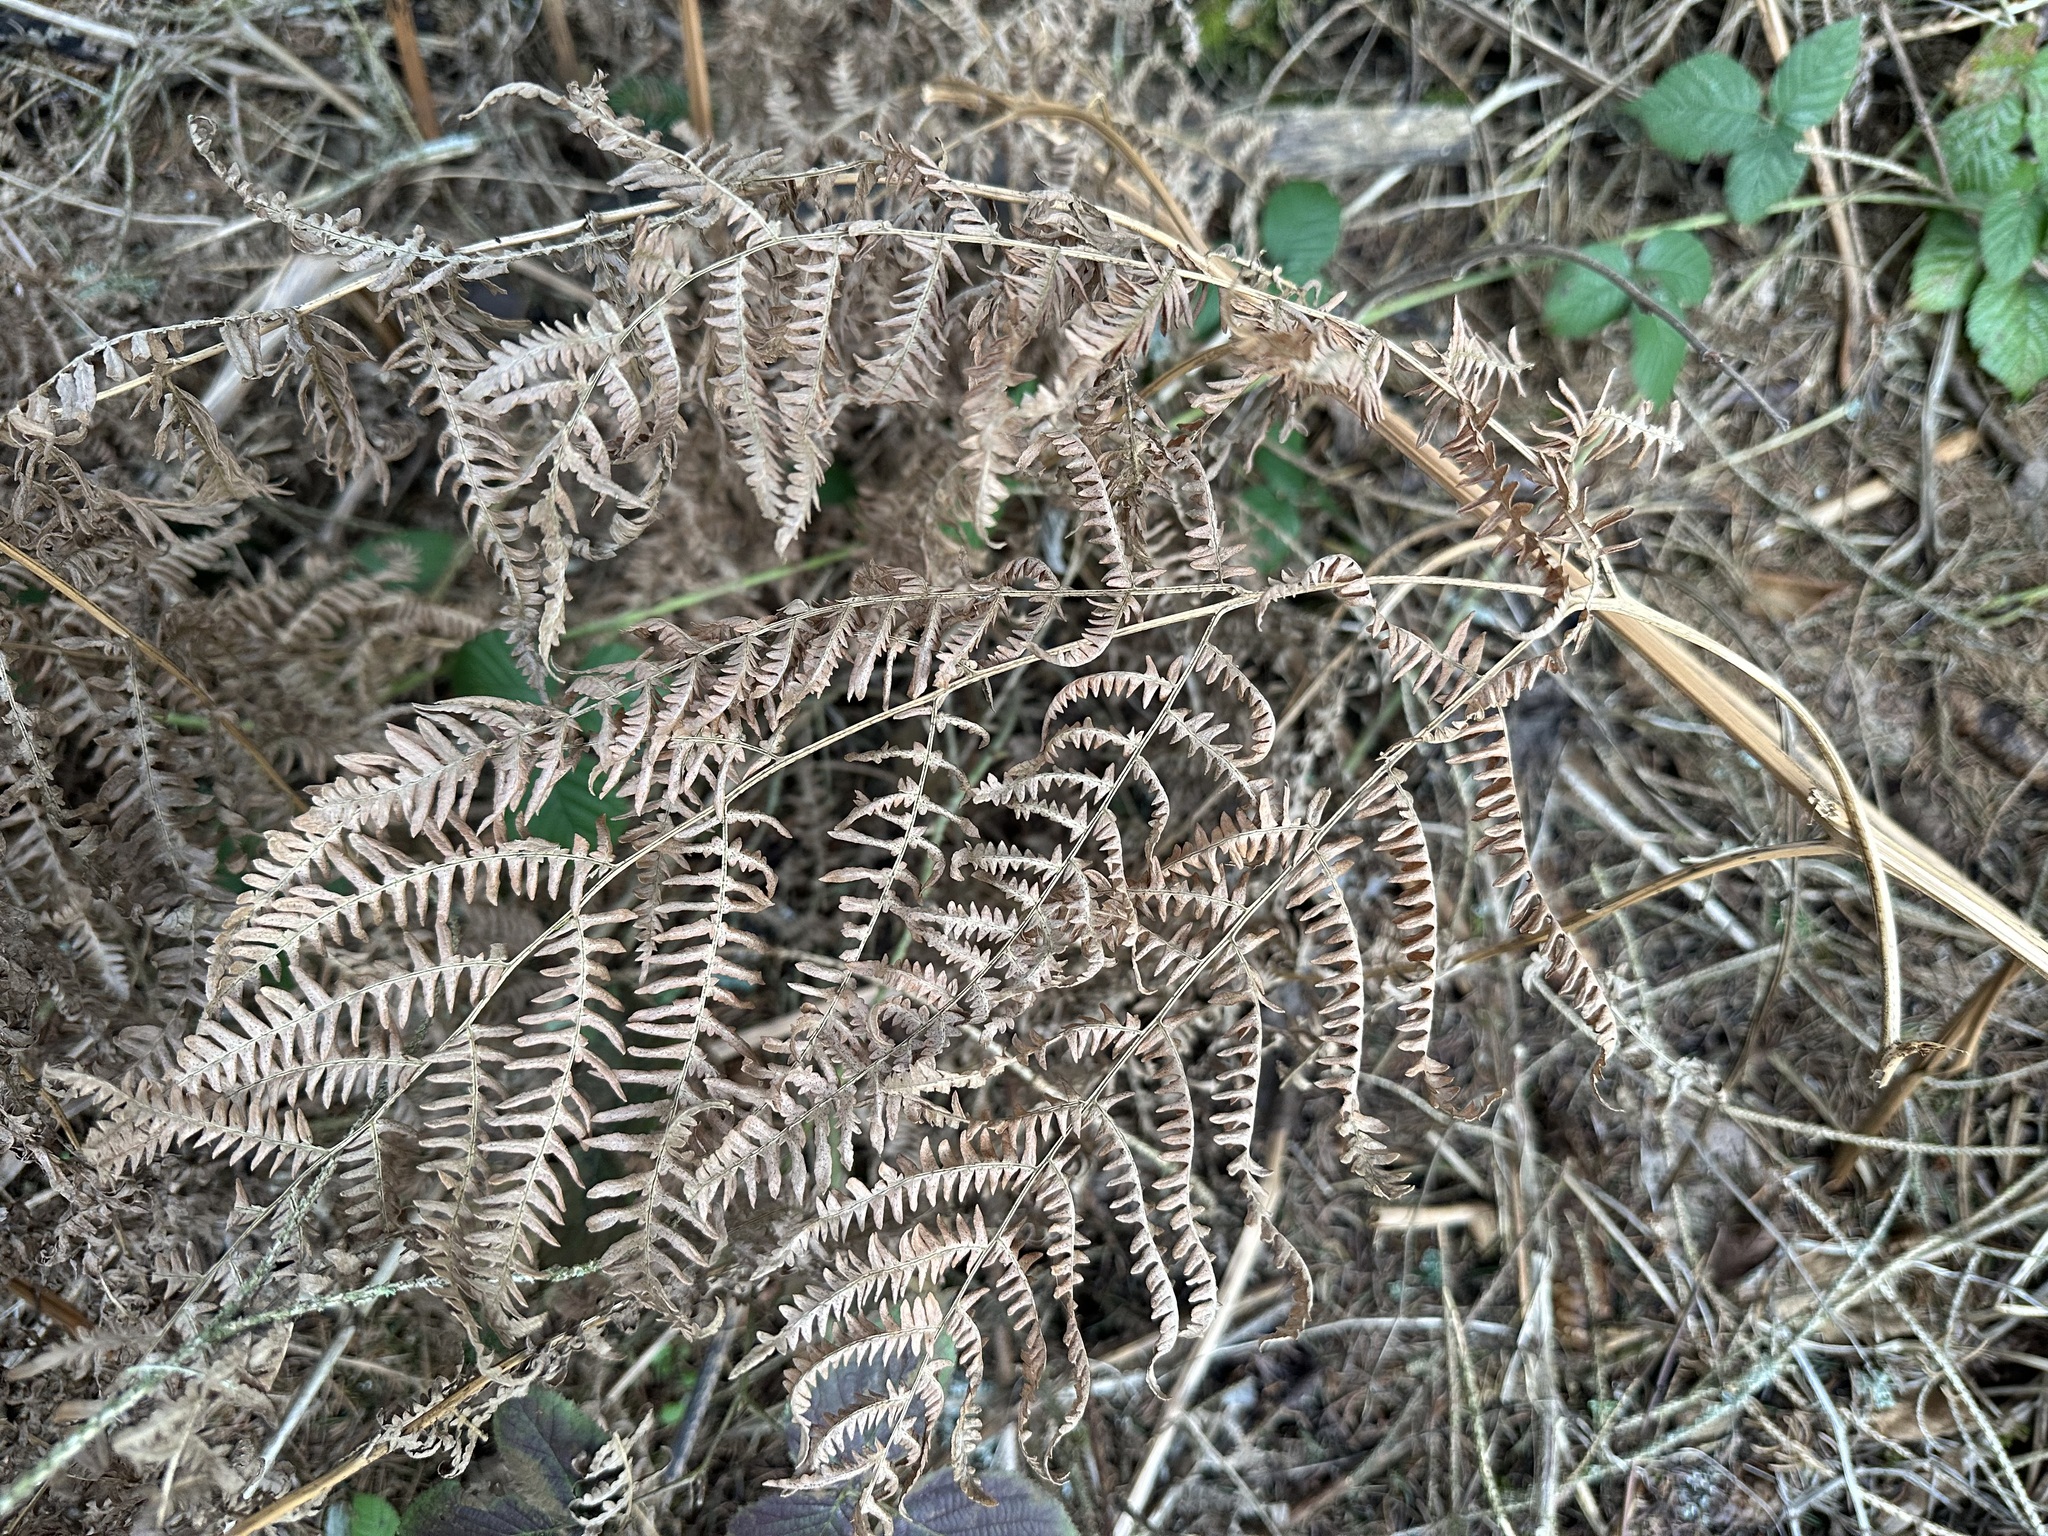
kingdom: Plantae
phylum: Tracheophyta
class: Polypodiopsida
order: Polypodiales
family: Dennstaedtiaceae
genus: Pteridium
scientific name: Pteridium aquilinum
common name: Bracken
